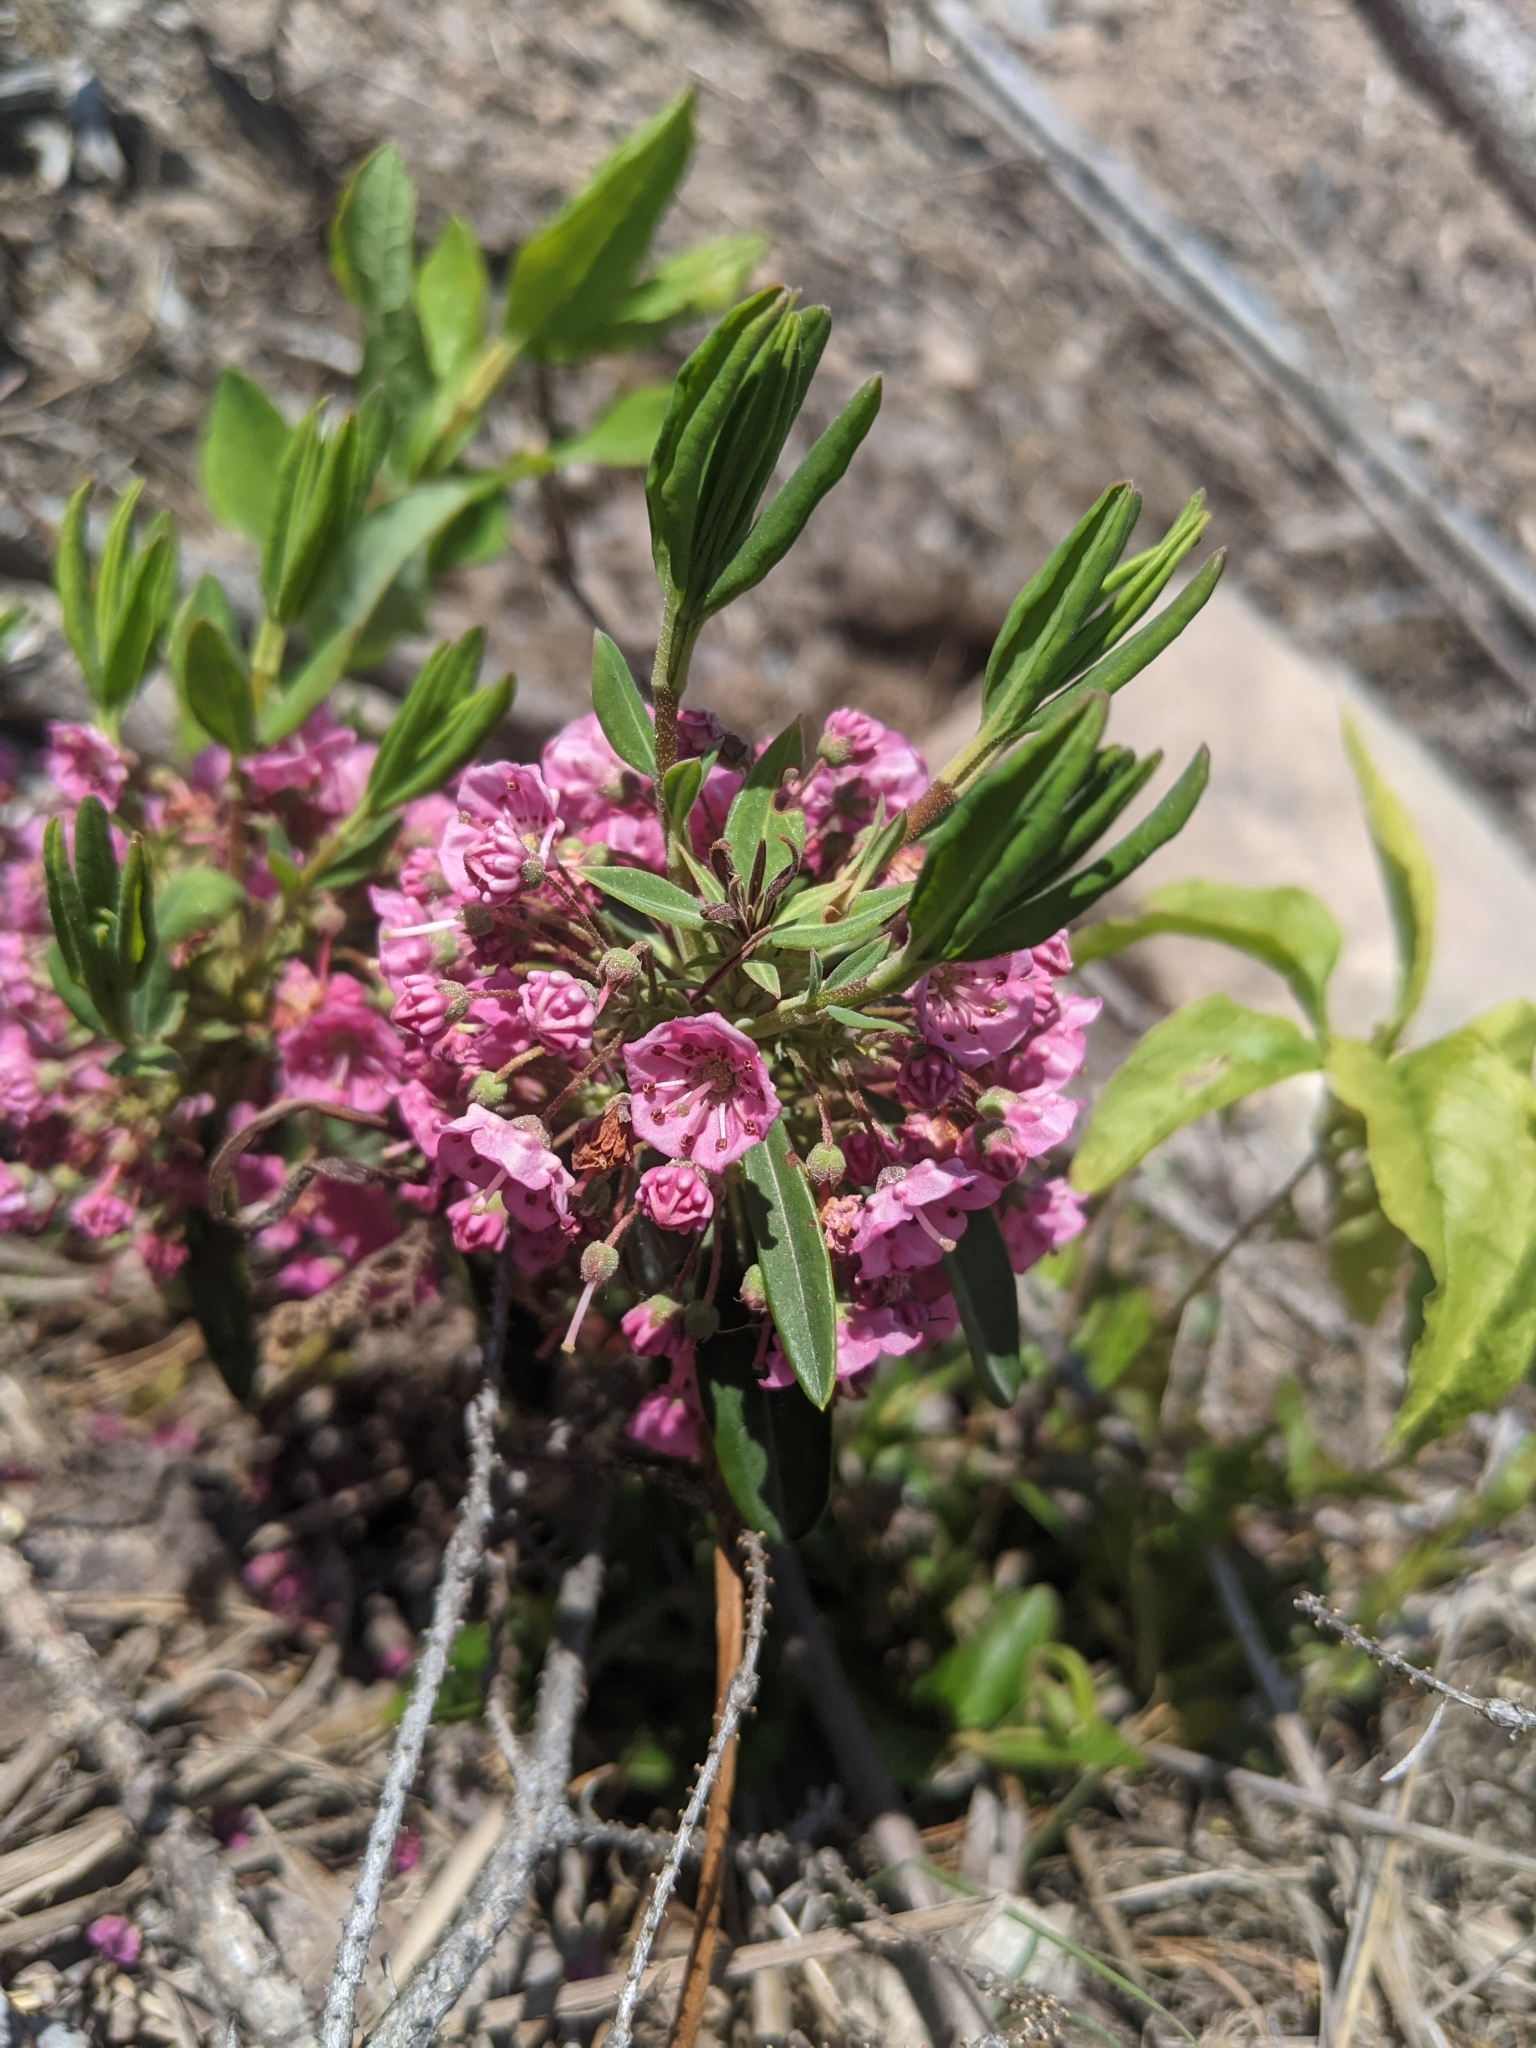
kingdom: Plantae
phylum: Tracheophyta
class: Magnoliopsida
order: Ericales
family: Ericaceae
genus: Kalmia
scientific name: Kalmia angustifolia
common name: Sheep-laurel
